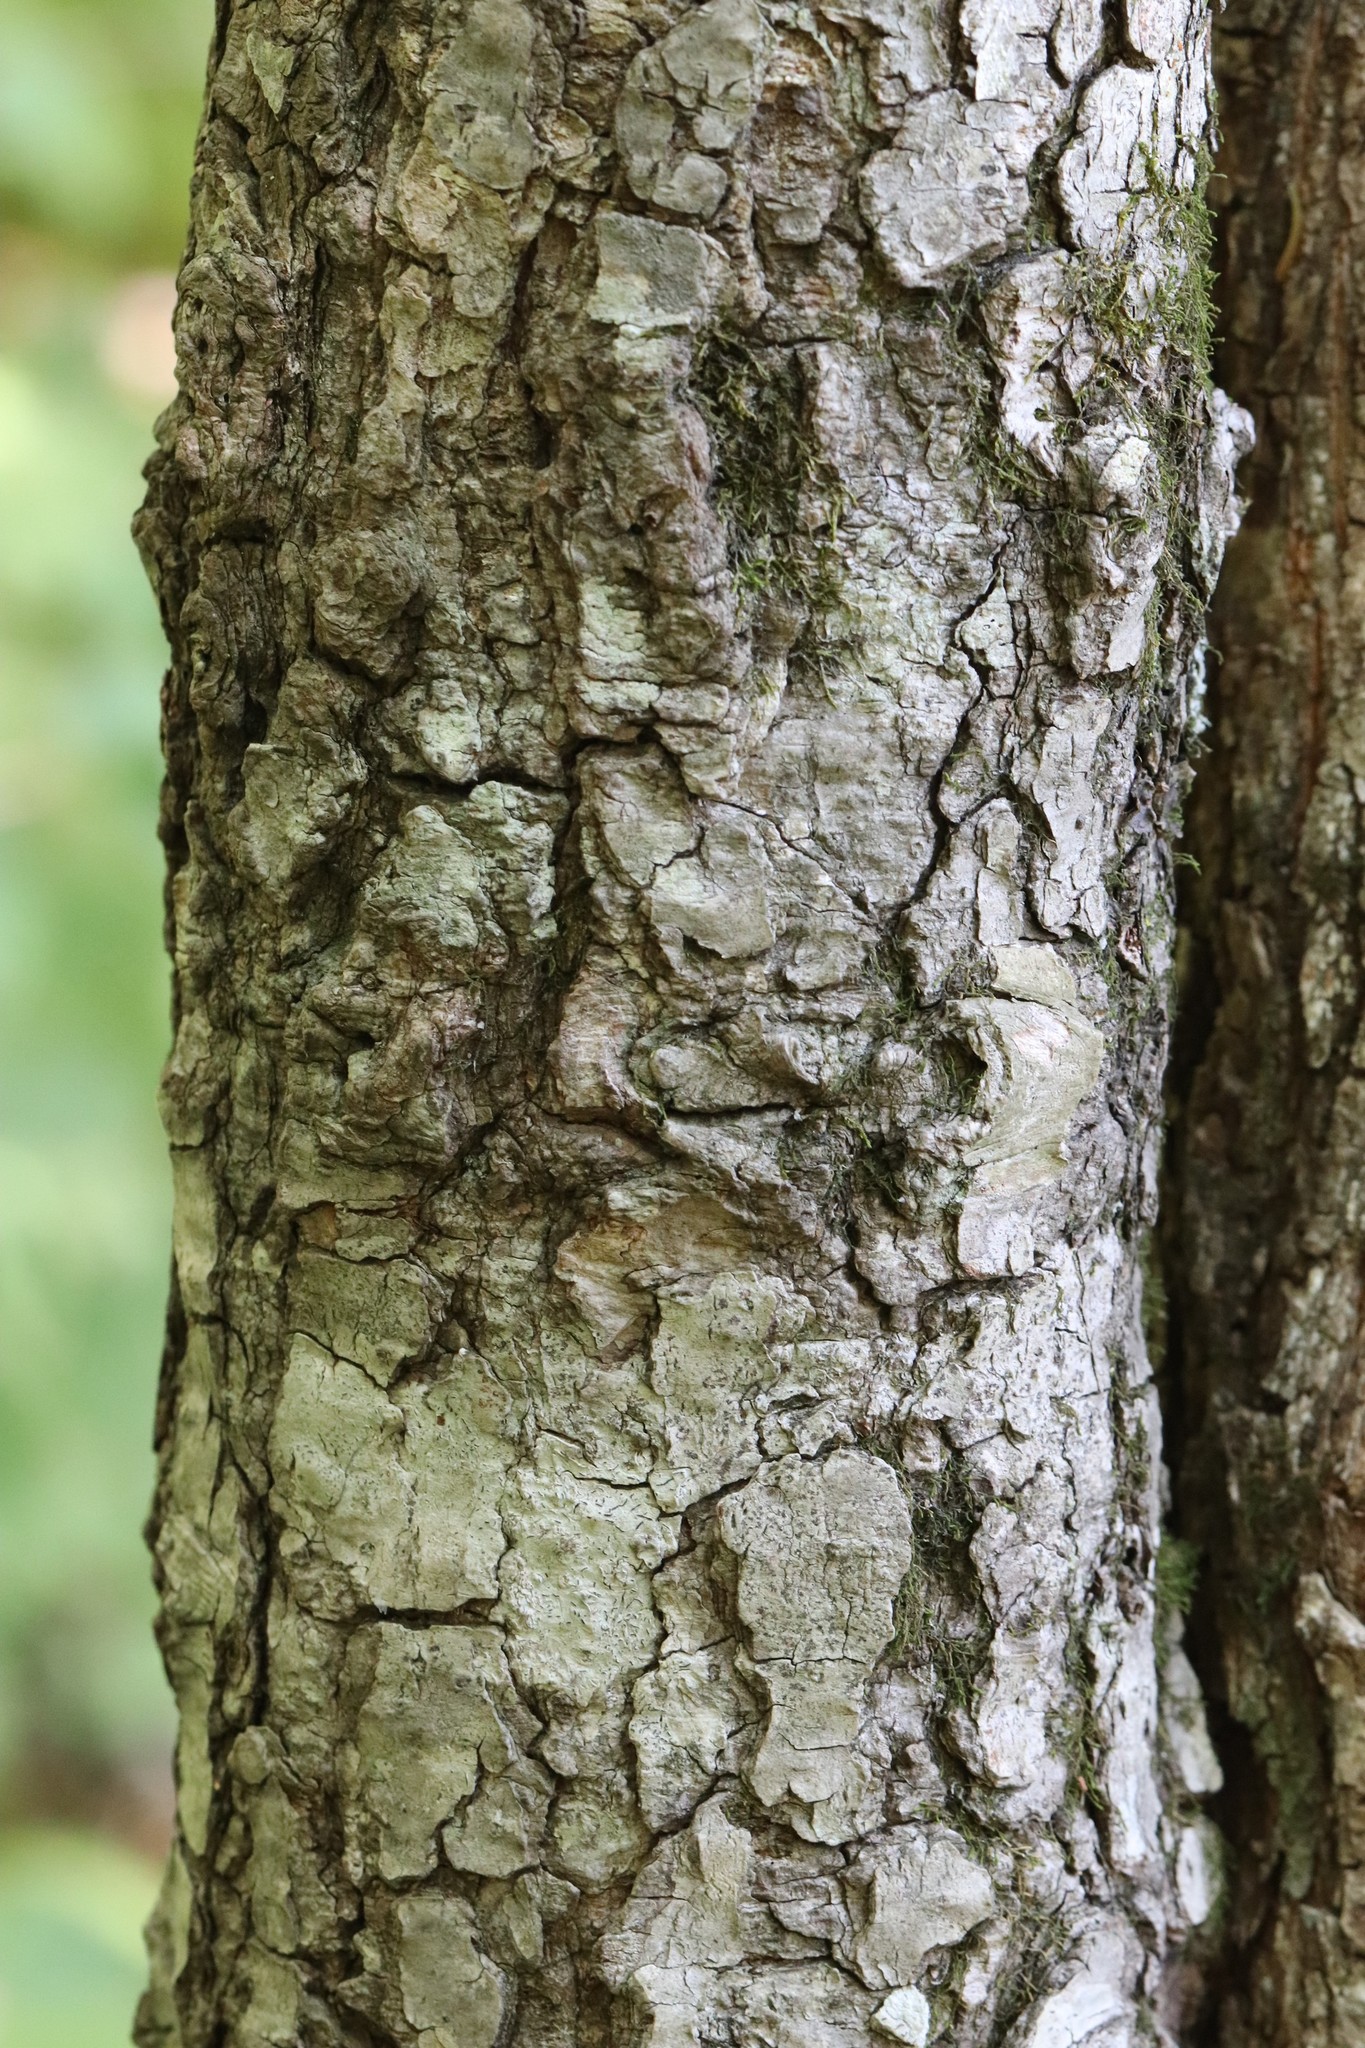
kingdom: Plantae
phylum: Tracheophyta
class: Magnoliopsida
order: Sapindales
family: Sapindaceae
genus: Acer
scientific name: Acer pictum
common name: The painted maple
